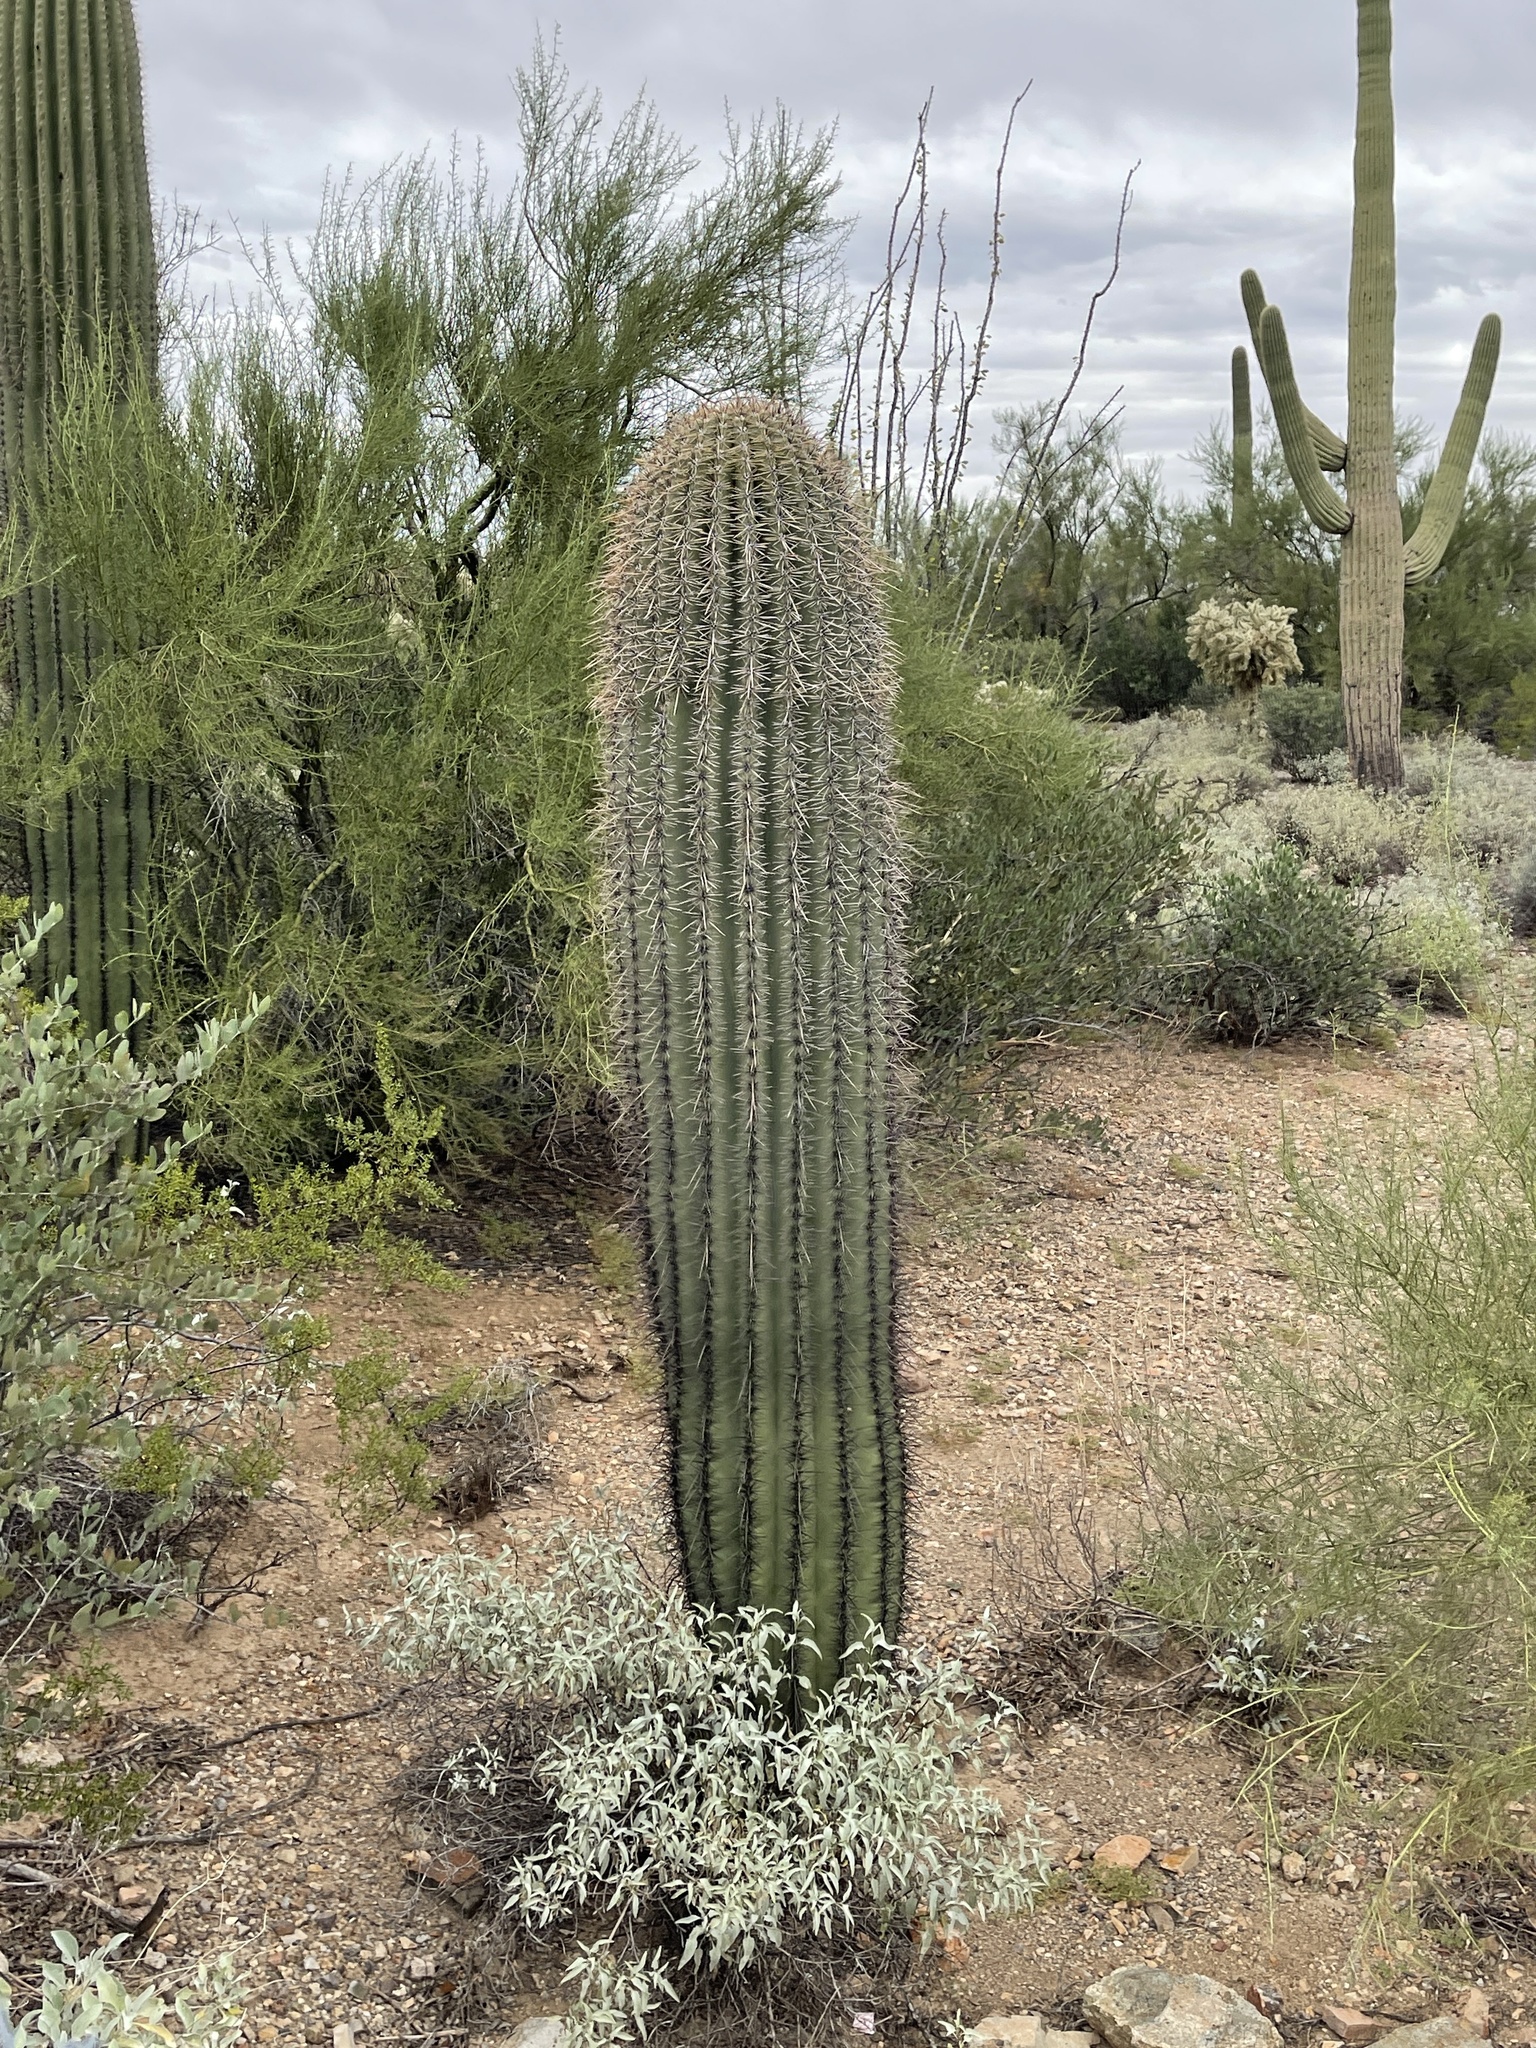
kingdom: Plantae
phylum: Tracheophyta
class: Magnoliopsida
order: Caryophyllales
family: Cactaceae
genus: Carnegiea
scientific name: Carnegiea gigantea
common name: Saguaro
